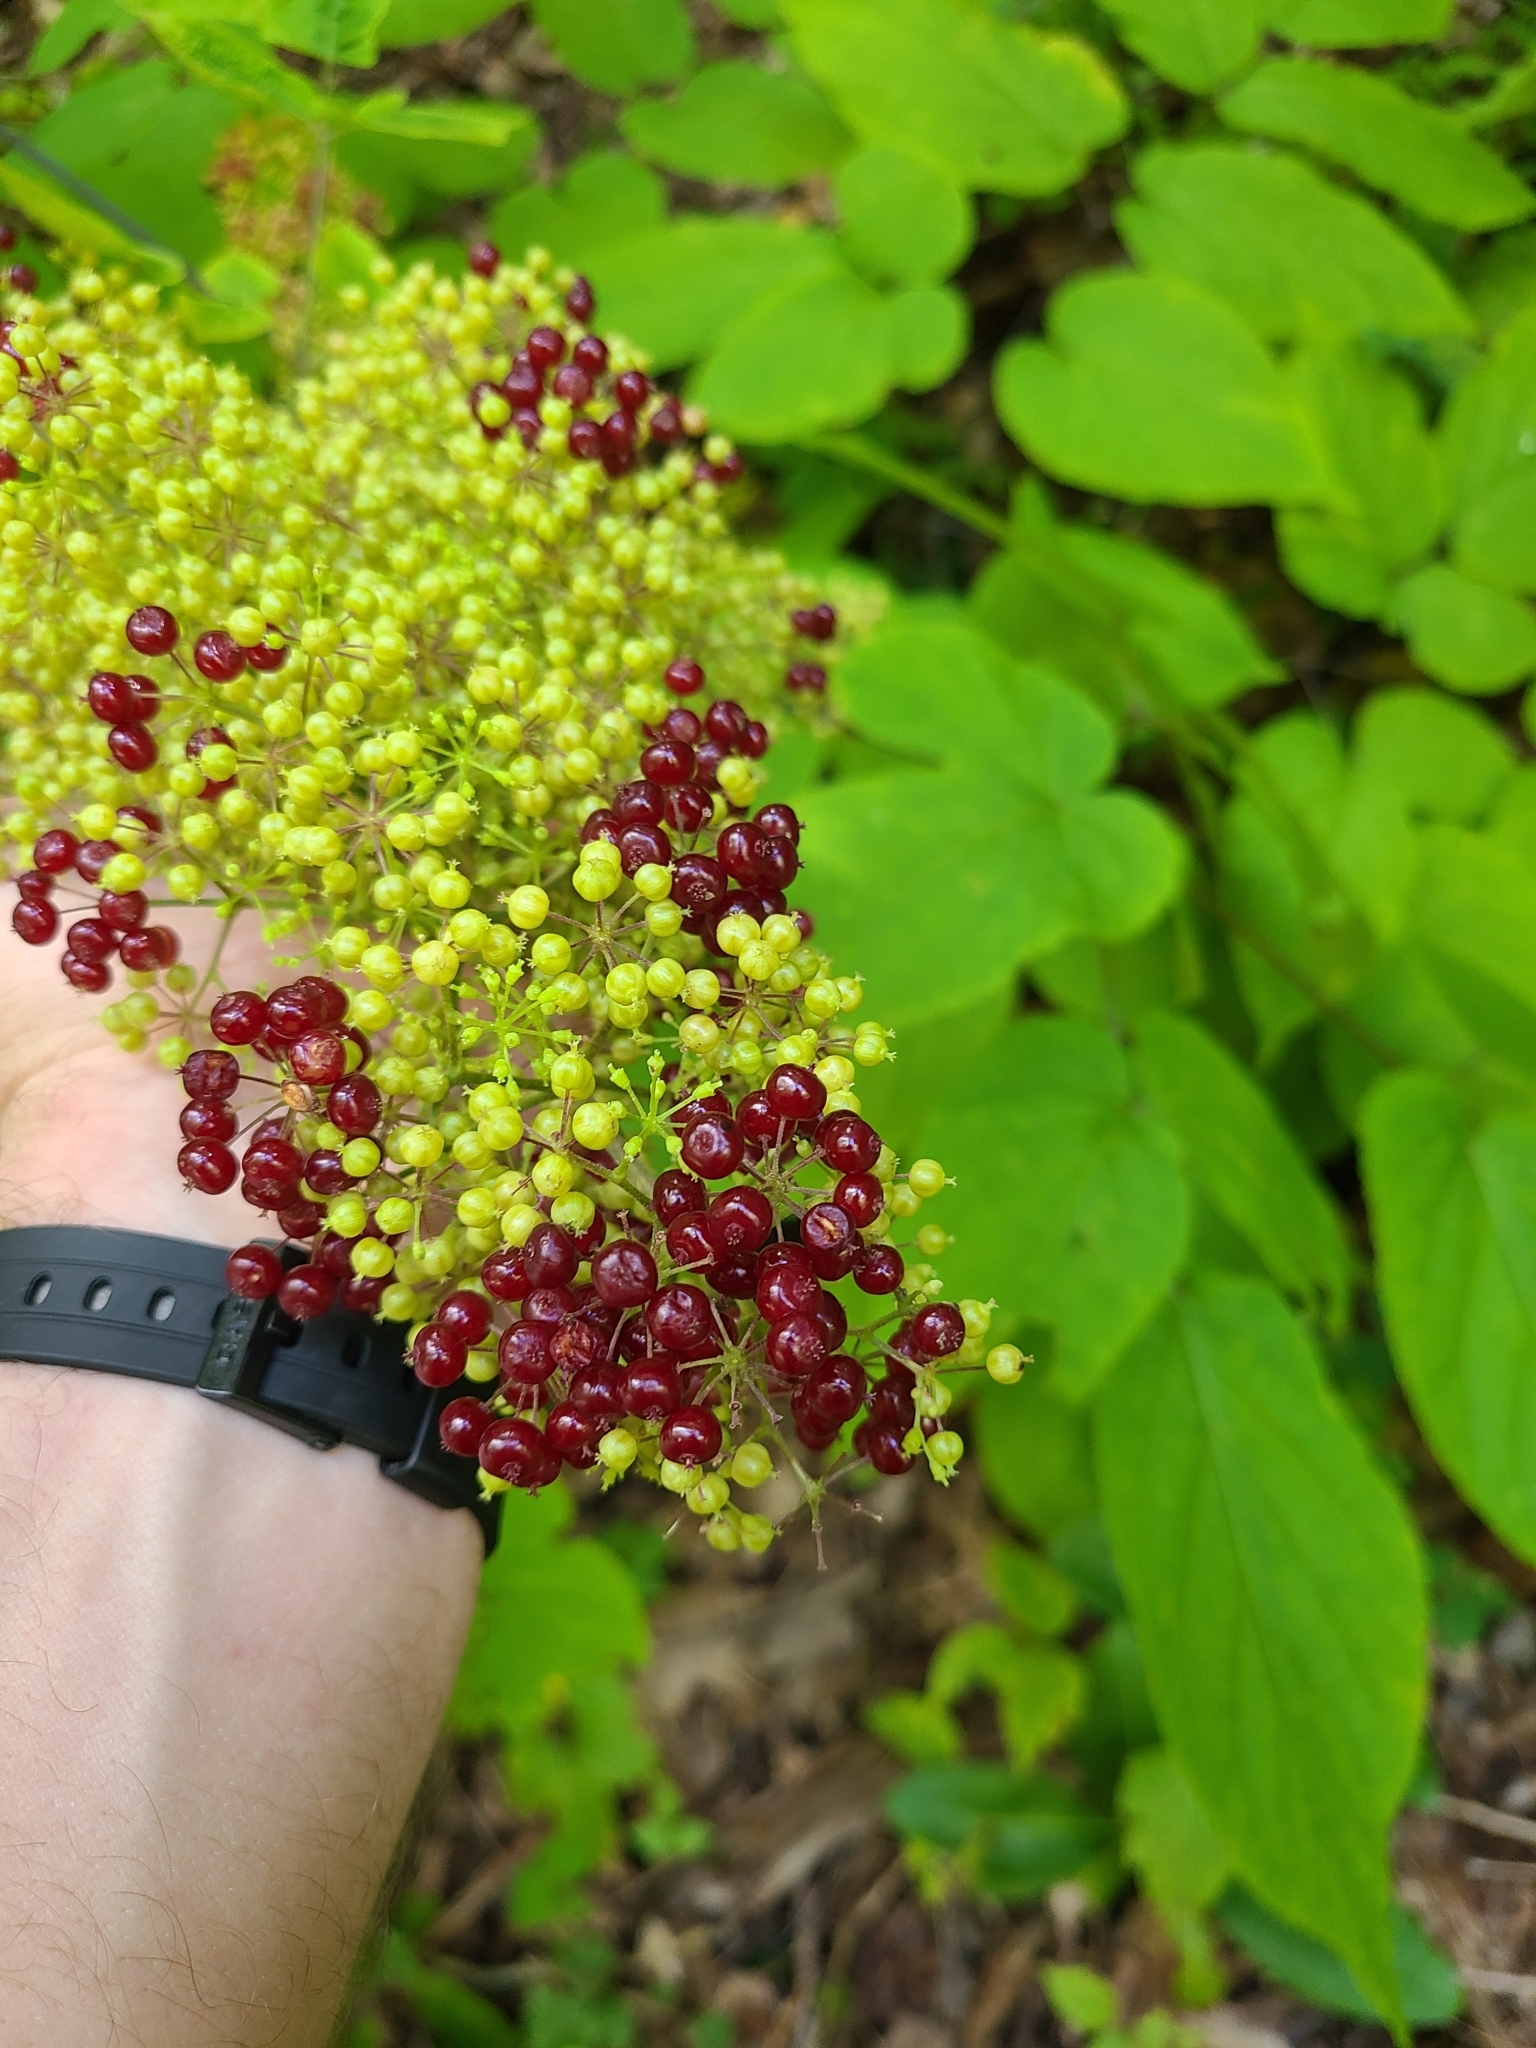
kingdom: Plantae
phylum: Tracheophyta
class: Magnoliopsida
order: Apiales
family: Araliaceae
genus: Aralia
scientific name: Aralia racemosa
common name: American-spikenard
